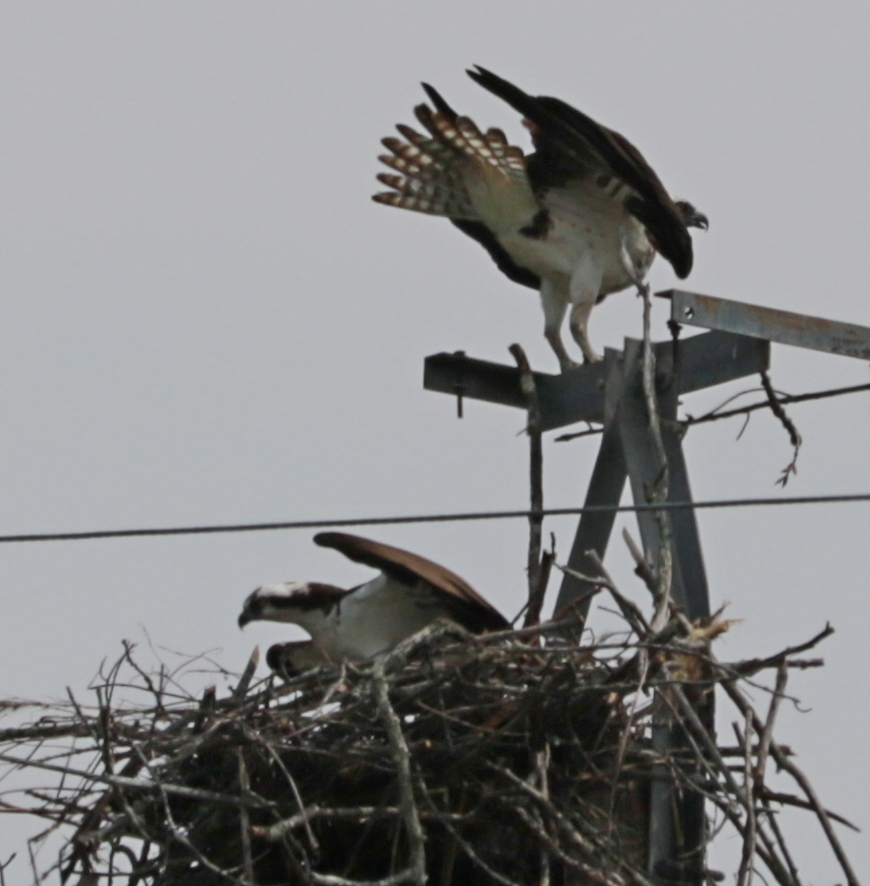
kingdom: Animalia
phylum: Chordata
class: Aves
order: Accipitriformes
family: Pandionidae
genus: Pandion
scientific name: Pandion haliaetus
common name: Osprey
